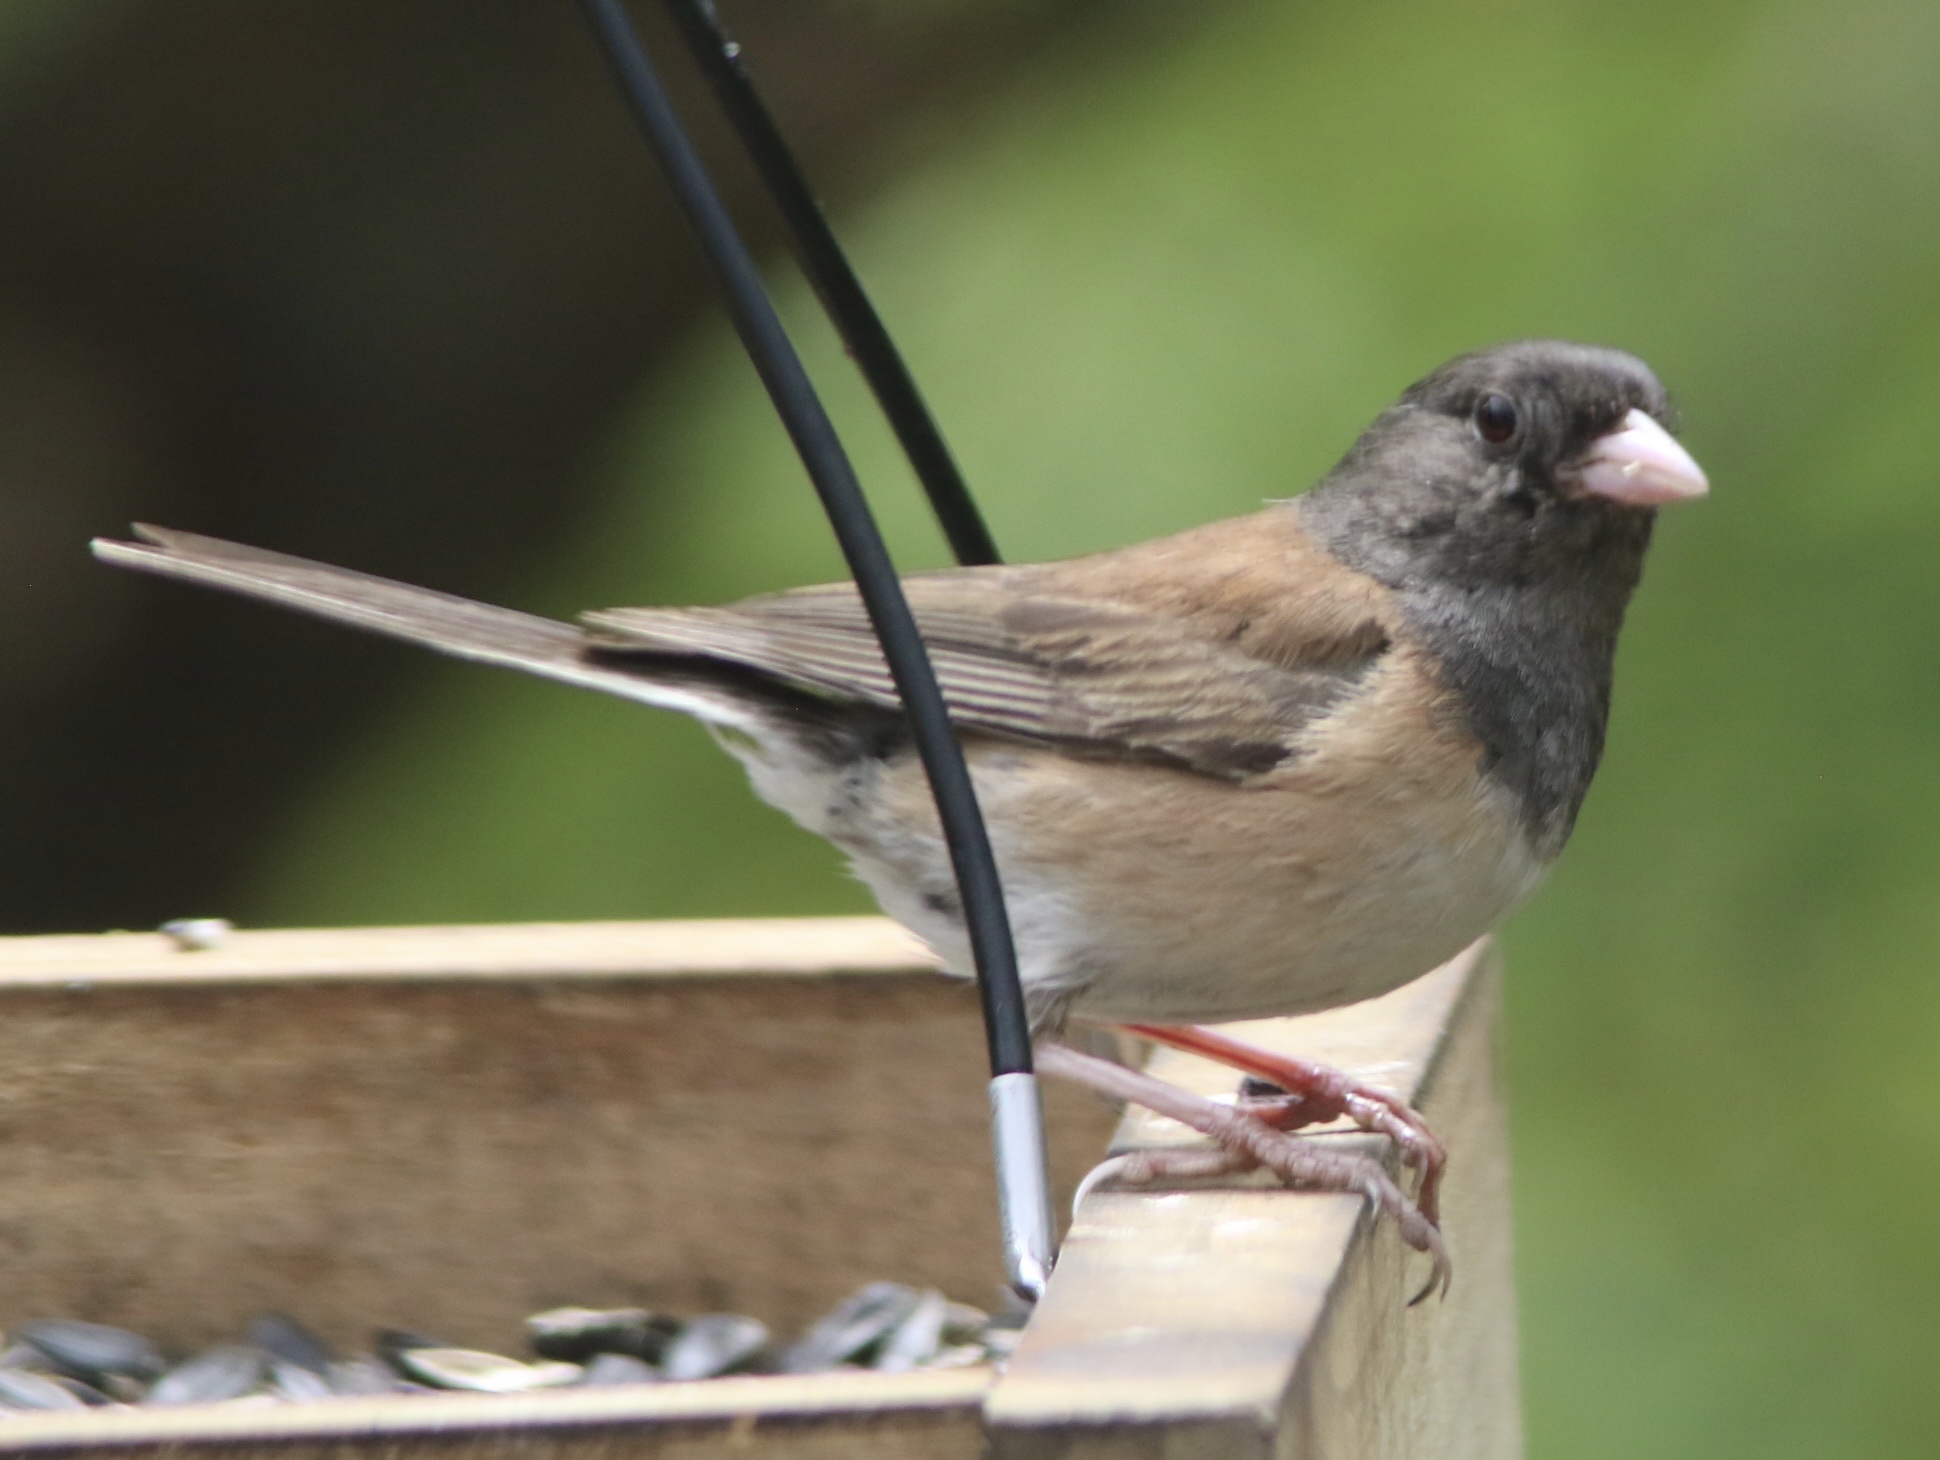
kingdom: Animalia
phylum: Chordata
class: Aves
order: Passeriformes
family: Passerellidae
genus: Junco
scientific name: Junco hyemalis
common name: Dark-eyed junco
